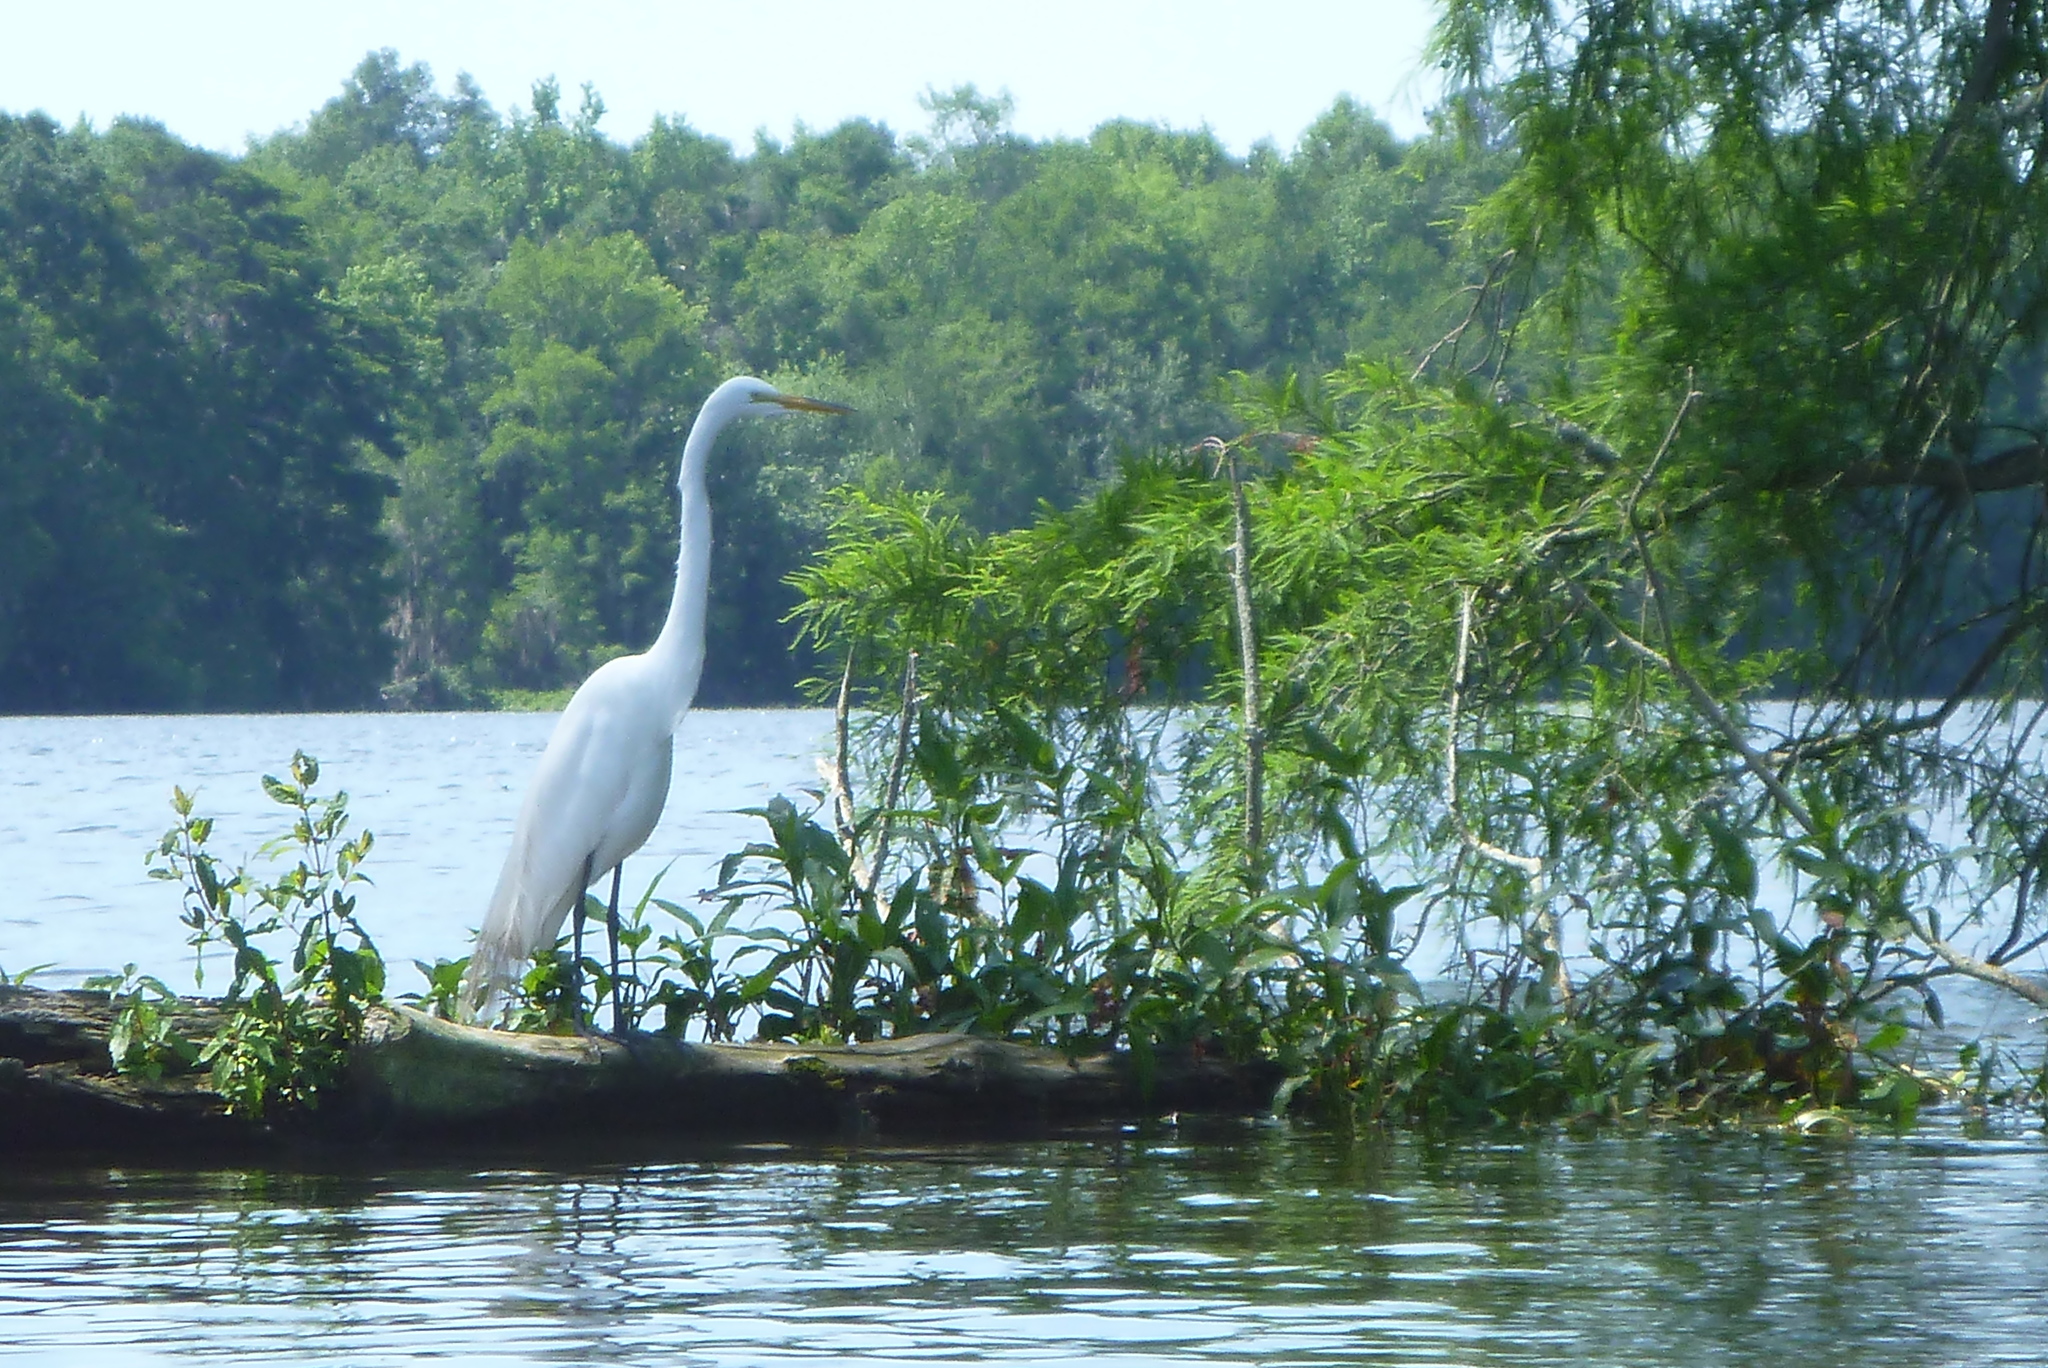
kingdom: Animalia
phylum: Chordata
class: Aves
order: Pelecaniformes
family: Ardeidae
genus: Ardea
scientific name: Ardea alba
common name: Great egret
